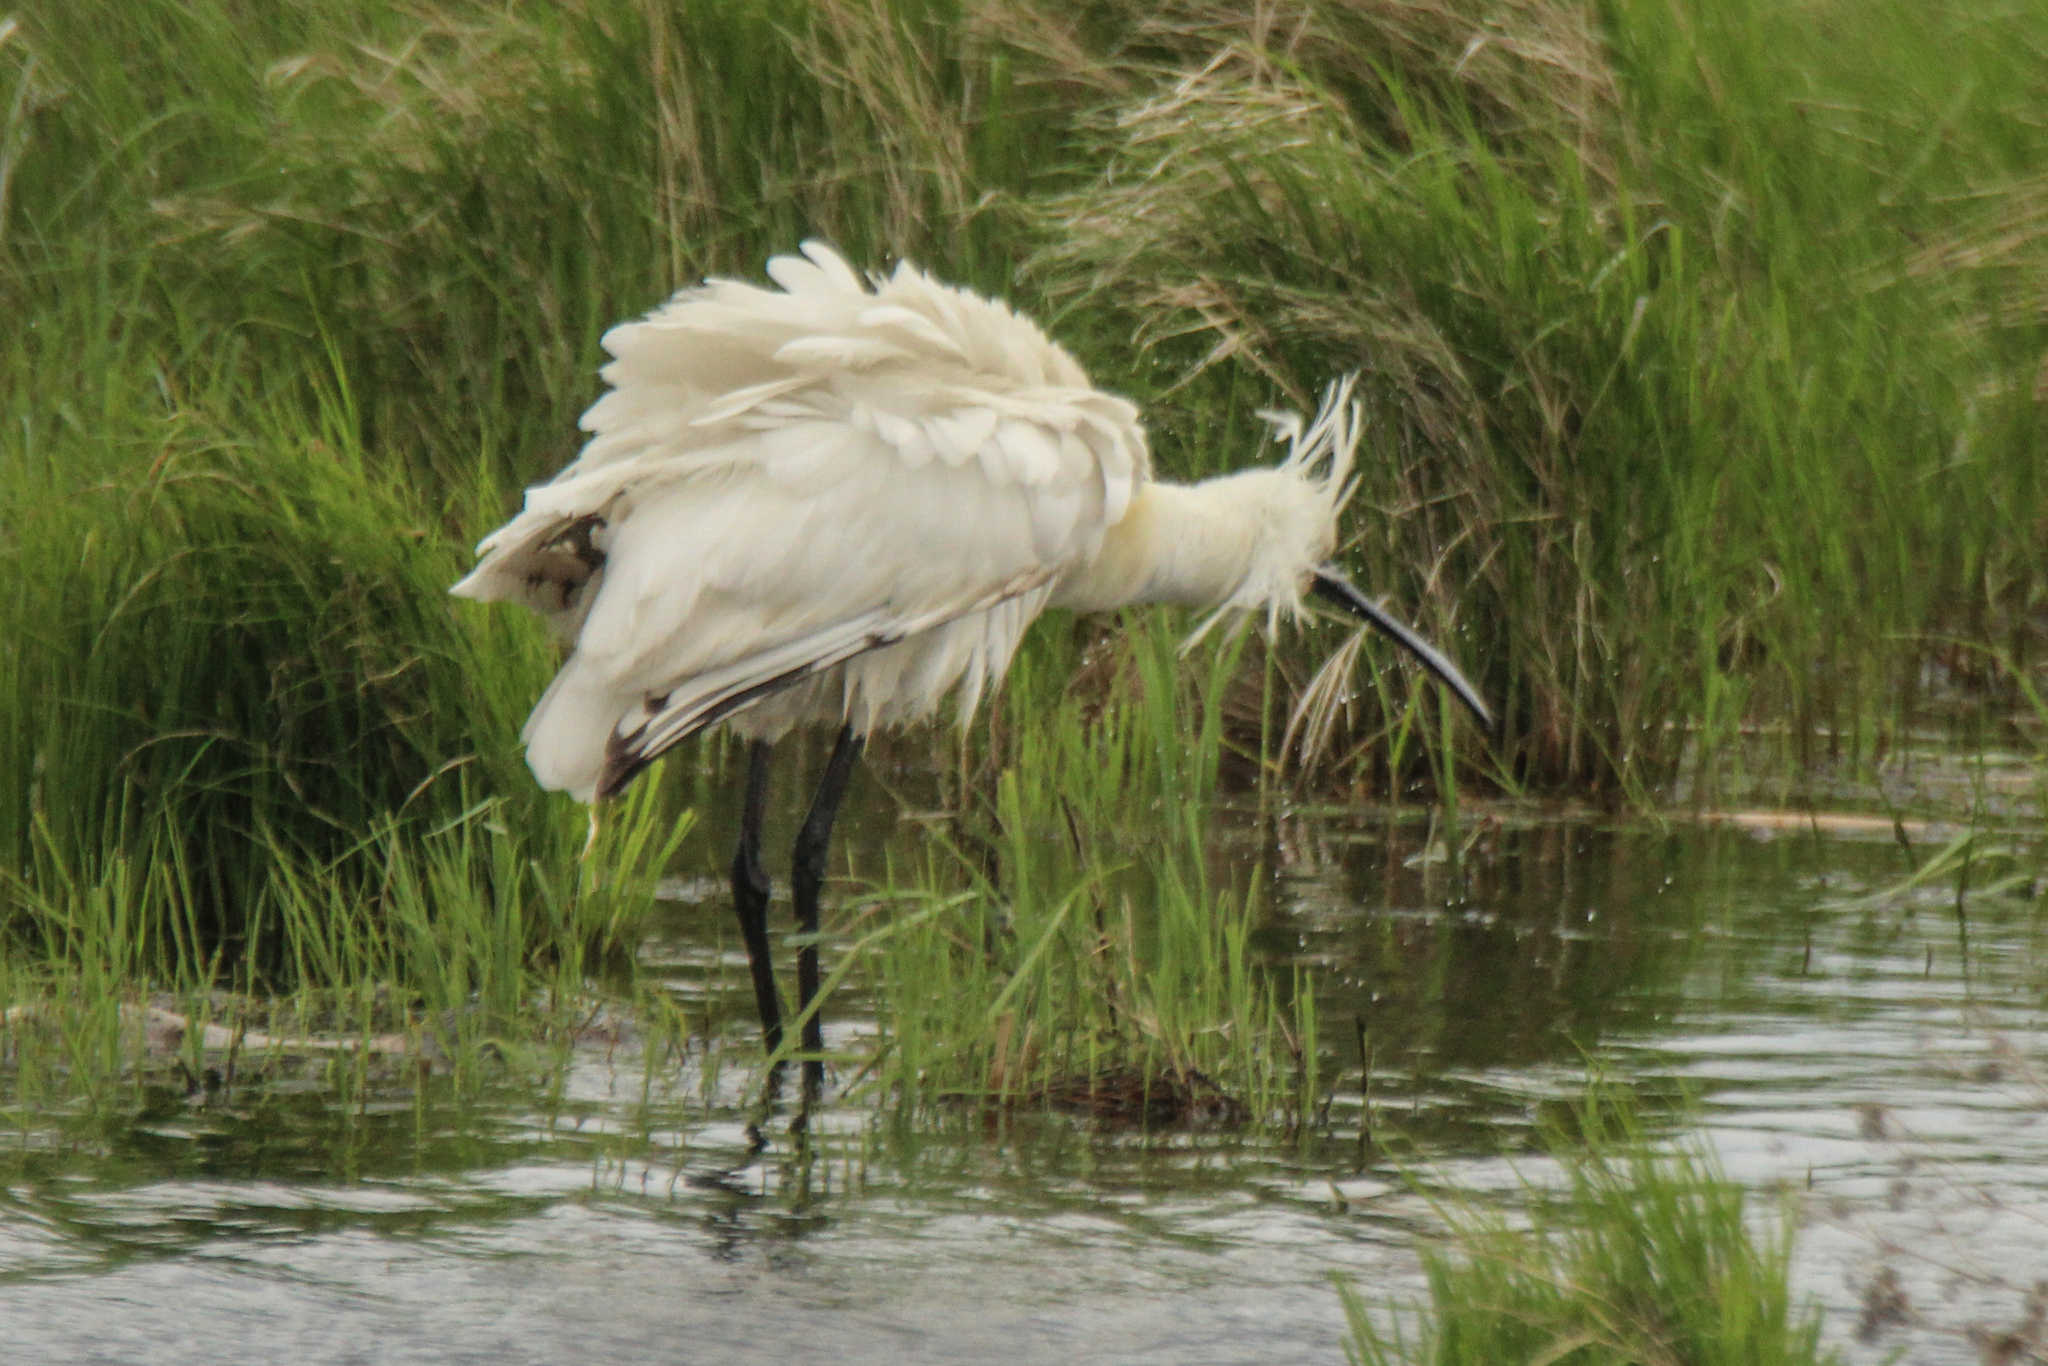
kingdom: Animalia
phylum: Chordata
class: Aves
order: Pelecaniformes
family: Threskiornithidae
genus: Platalea
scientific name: Platalea leucorodia
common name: Eurasian spoonbill
